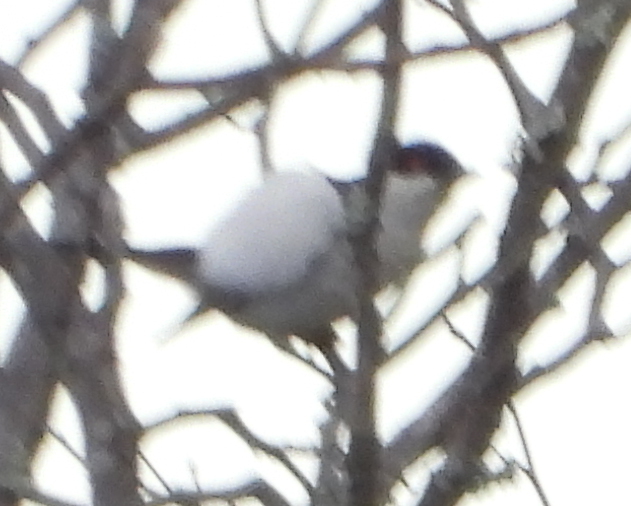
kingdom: Animalia
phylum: Chordata
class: Aves
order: Passeriformes
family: Malaconotidae
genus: Dryoscopus
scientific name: Dryoscopus cubla
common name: Black-backed puffback
